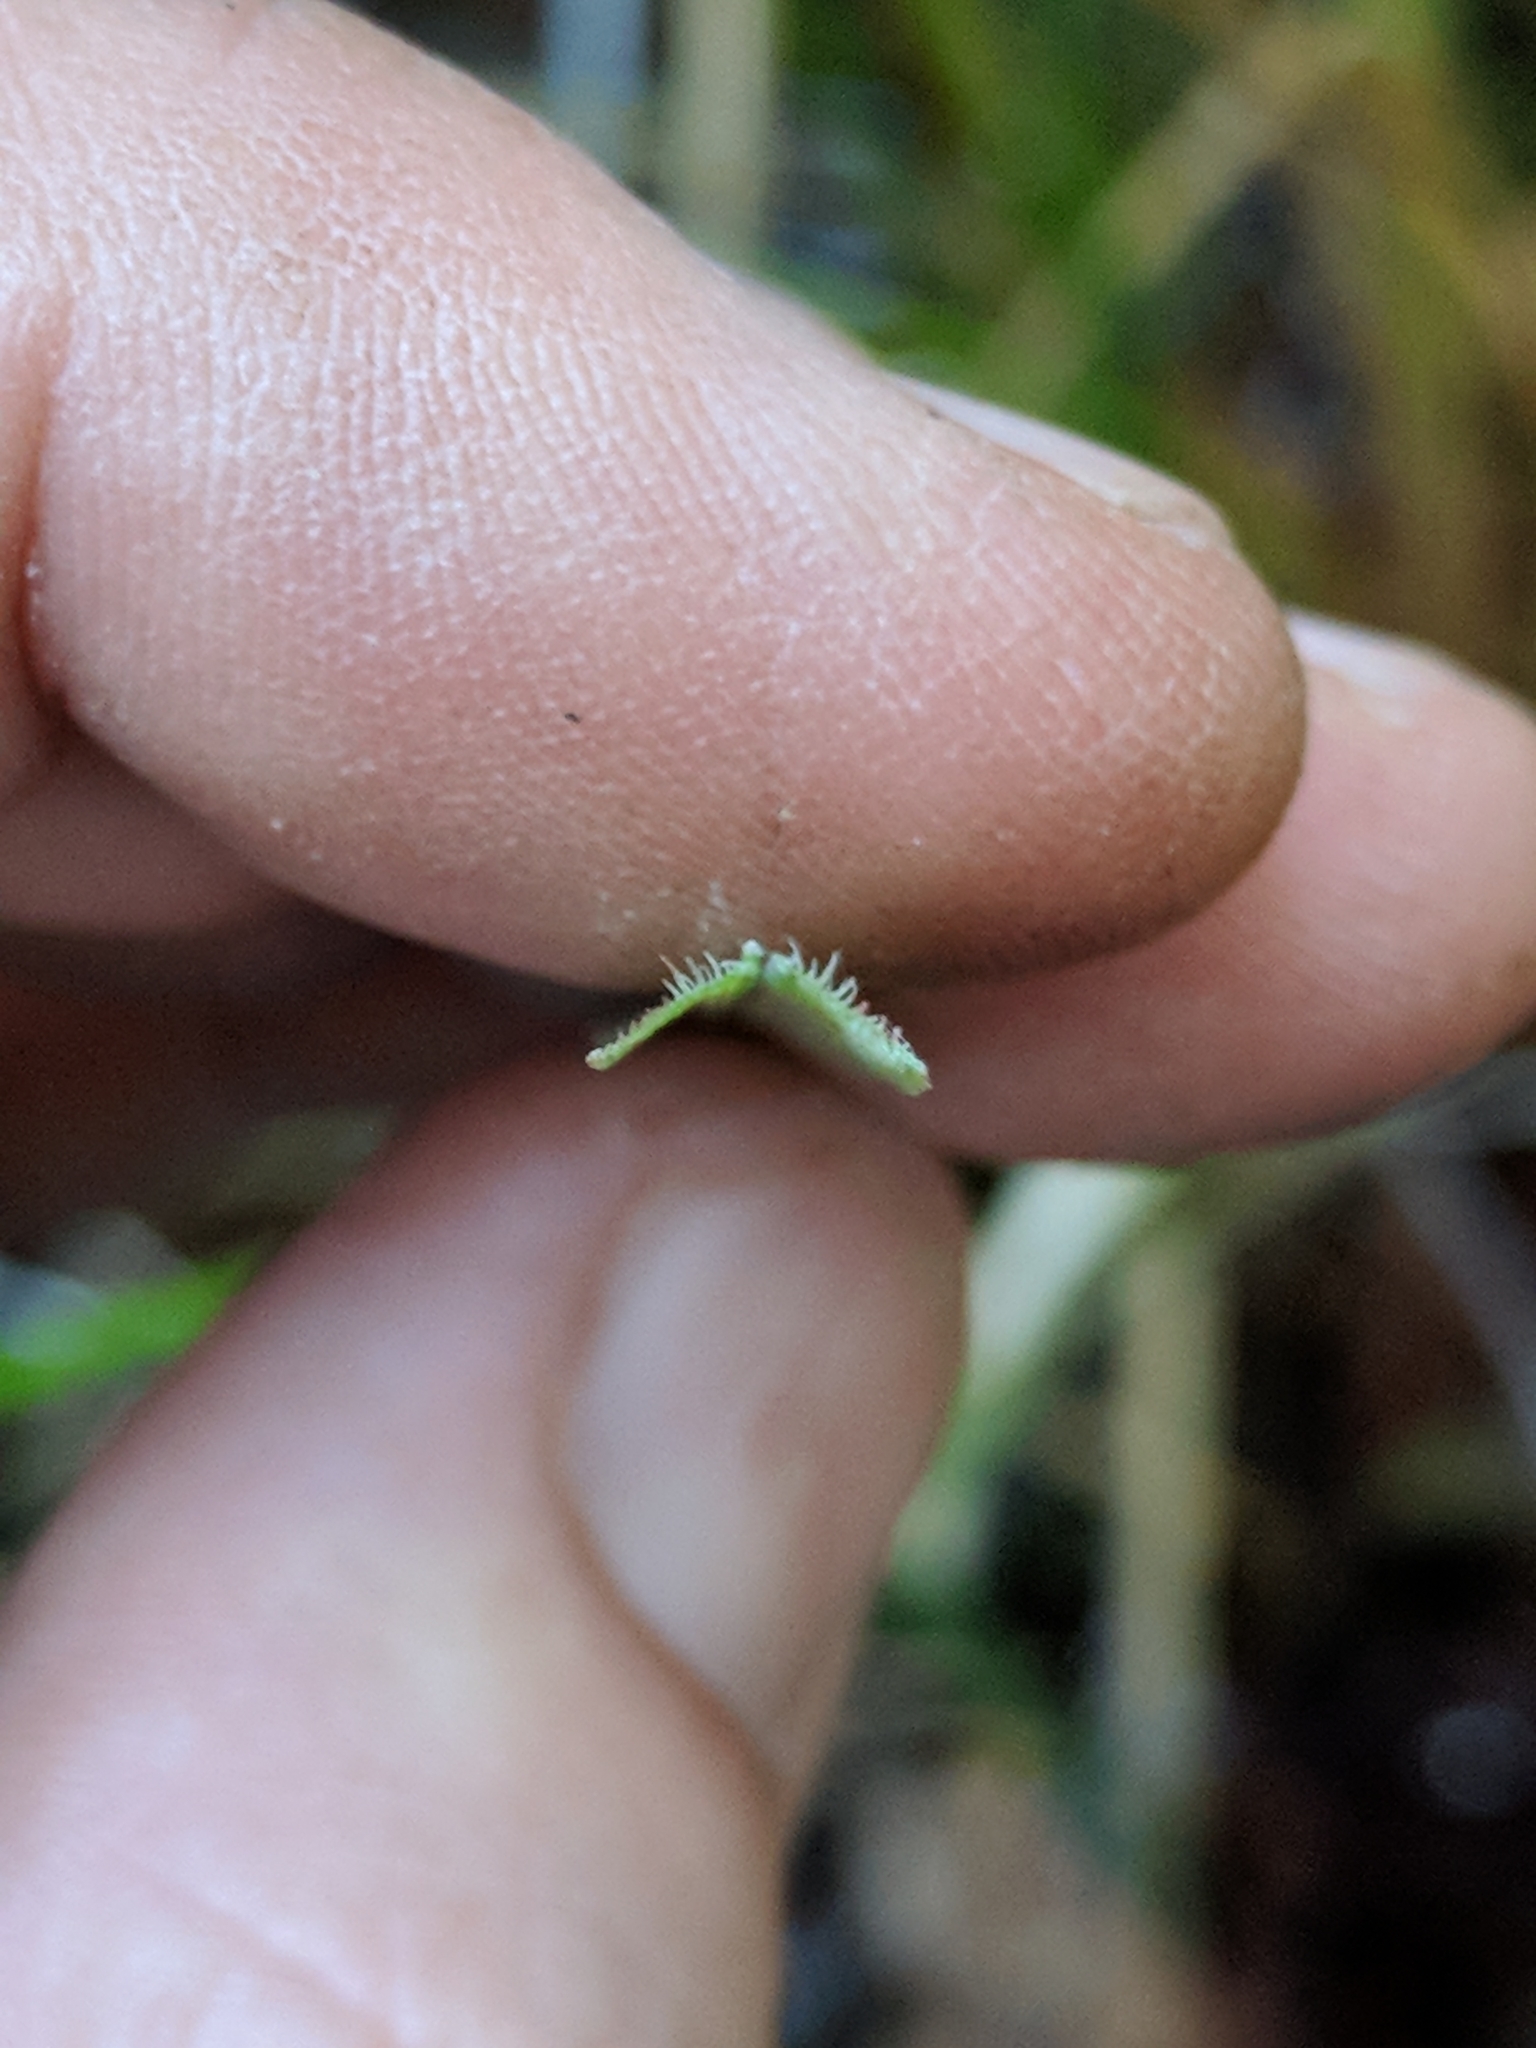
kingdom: Plantae
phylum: Tracheophyta
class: Liliopsida
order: Poales
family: Cyperaceae
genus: Carex
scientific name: Carex obnupta
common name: Slough sedge
